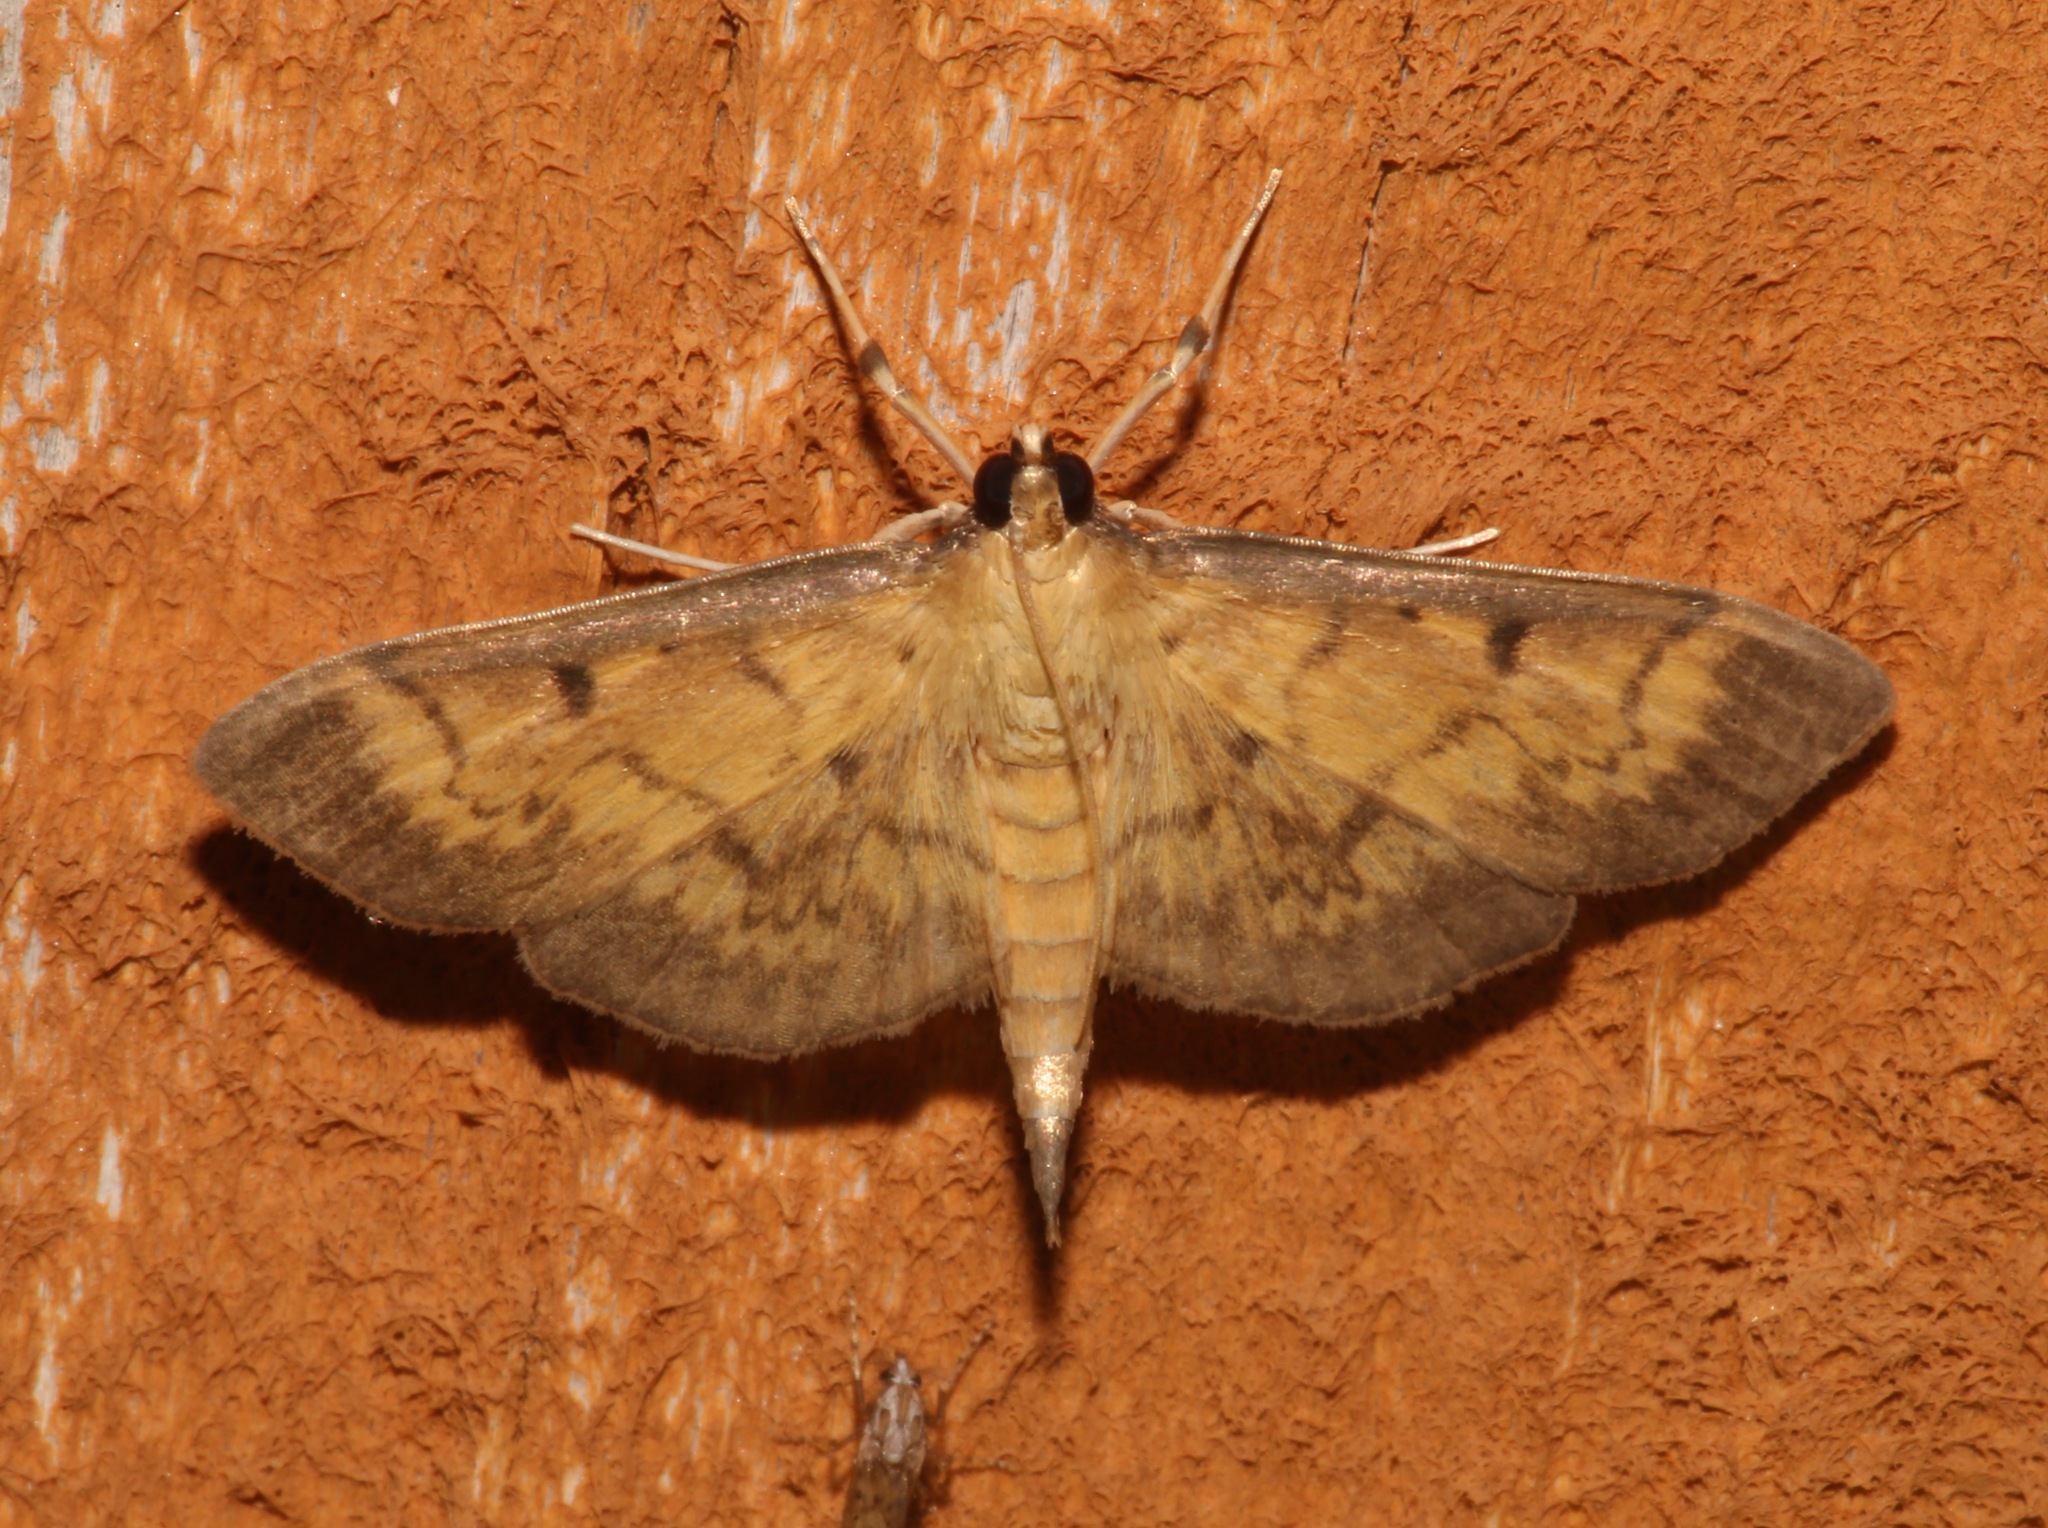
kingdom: Animalia
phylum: Arthropoda
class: Insecta
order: Lepidoptera
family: Crambidae
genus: Herpetogramma
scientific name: Herpetogramma fluctuosalis
